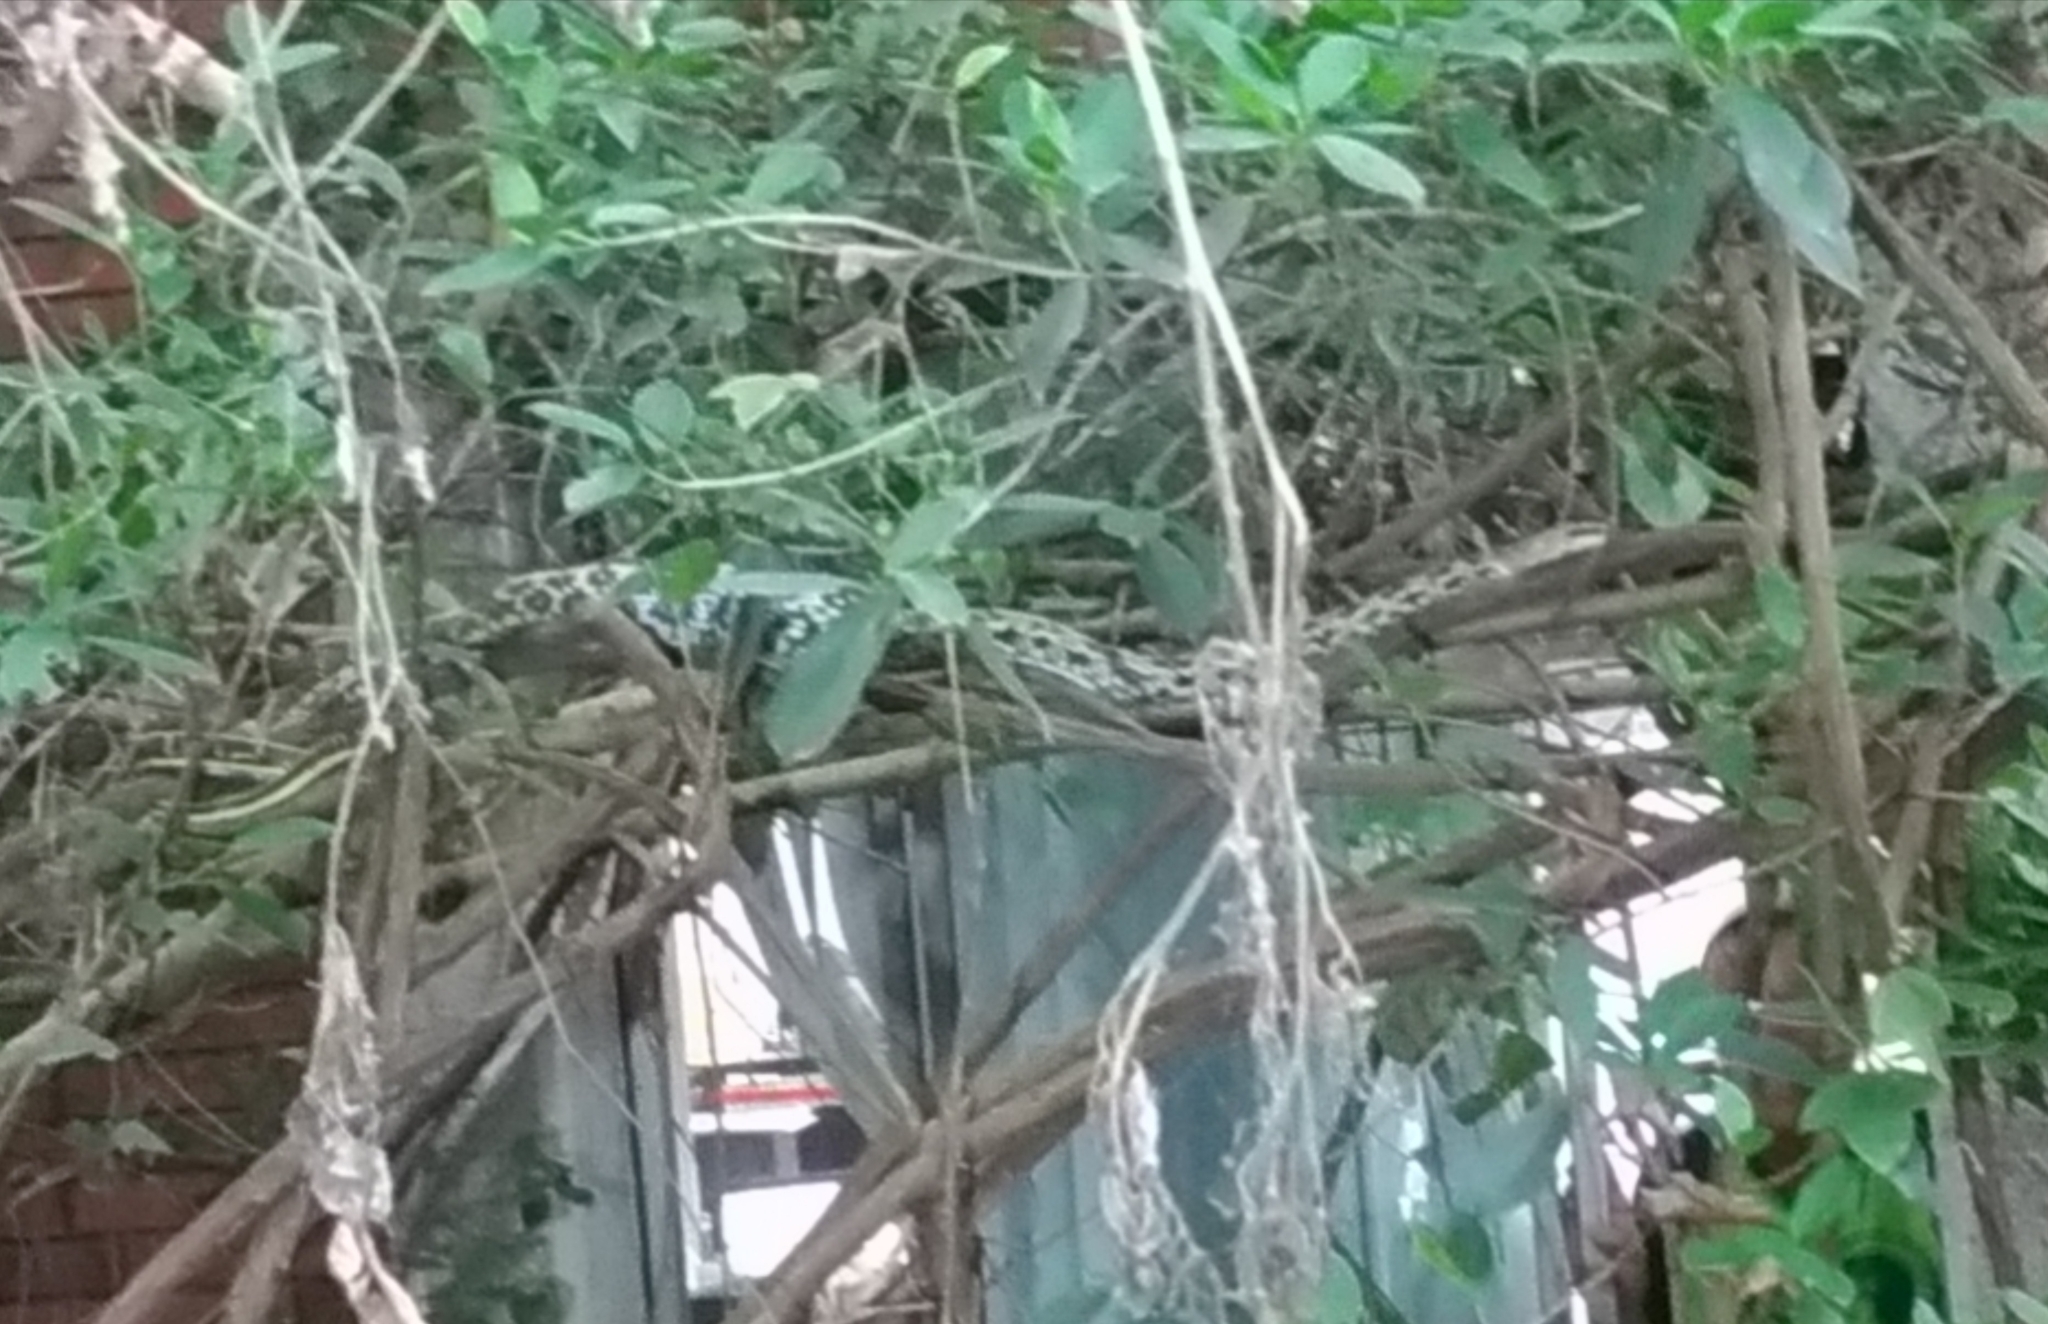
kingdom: Animalia
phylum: Chordata
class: Squamata
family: Colubridae
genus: Elaphe
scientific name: Elaphe taeniura
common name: Beauty snake
